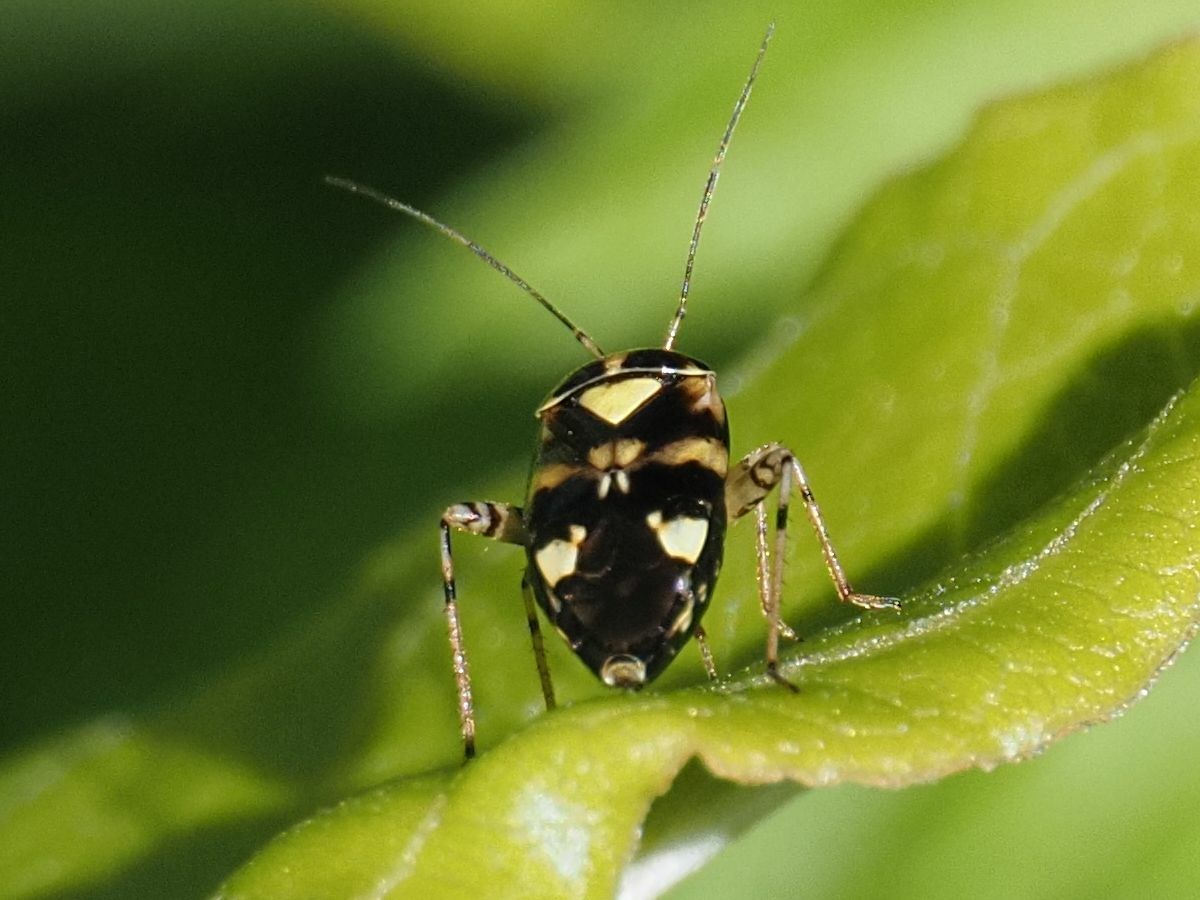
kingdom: Animalia
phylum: Arthropoda
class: Insecta
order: Hemiptera
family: Miridae
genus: Liocoris
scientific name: Liocoris tripustulatus
